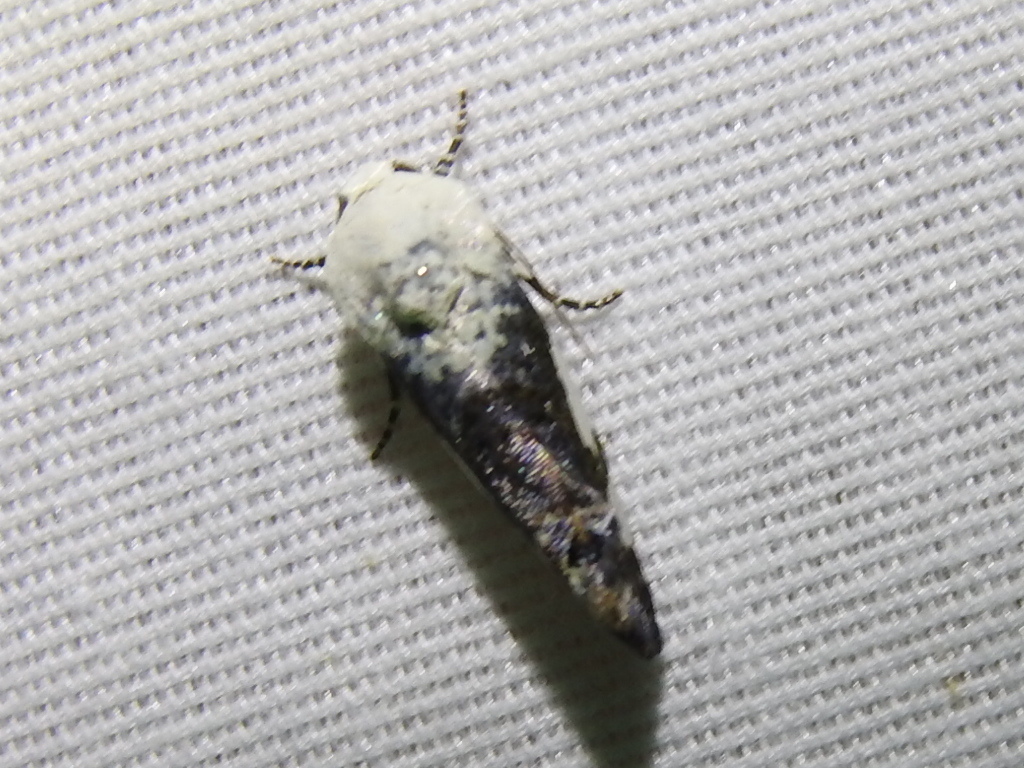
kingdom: Animalia
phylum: Arthropoda
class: Insecta
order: Lepidoptera
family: Noctuidae
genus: Acontia
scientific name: Acontia quadriplaga
